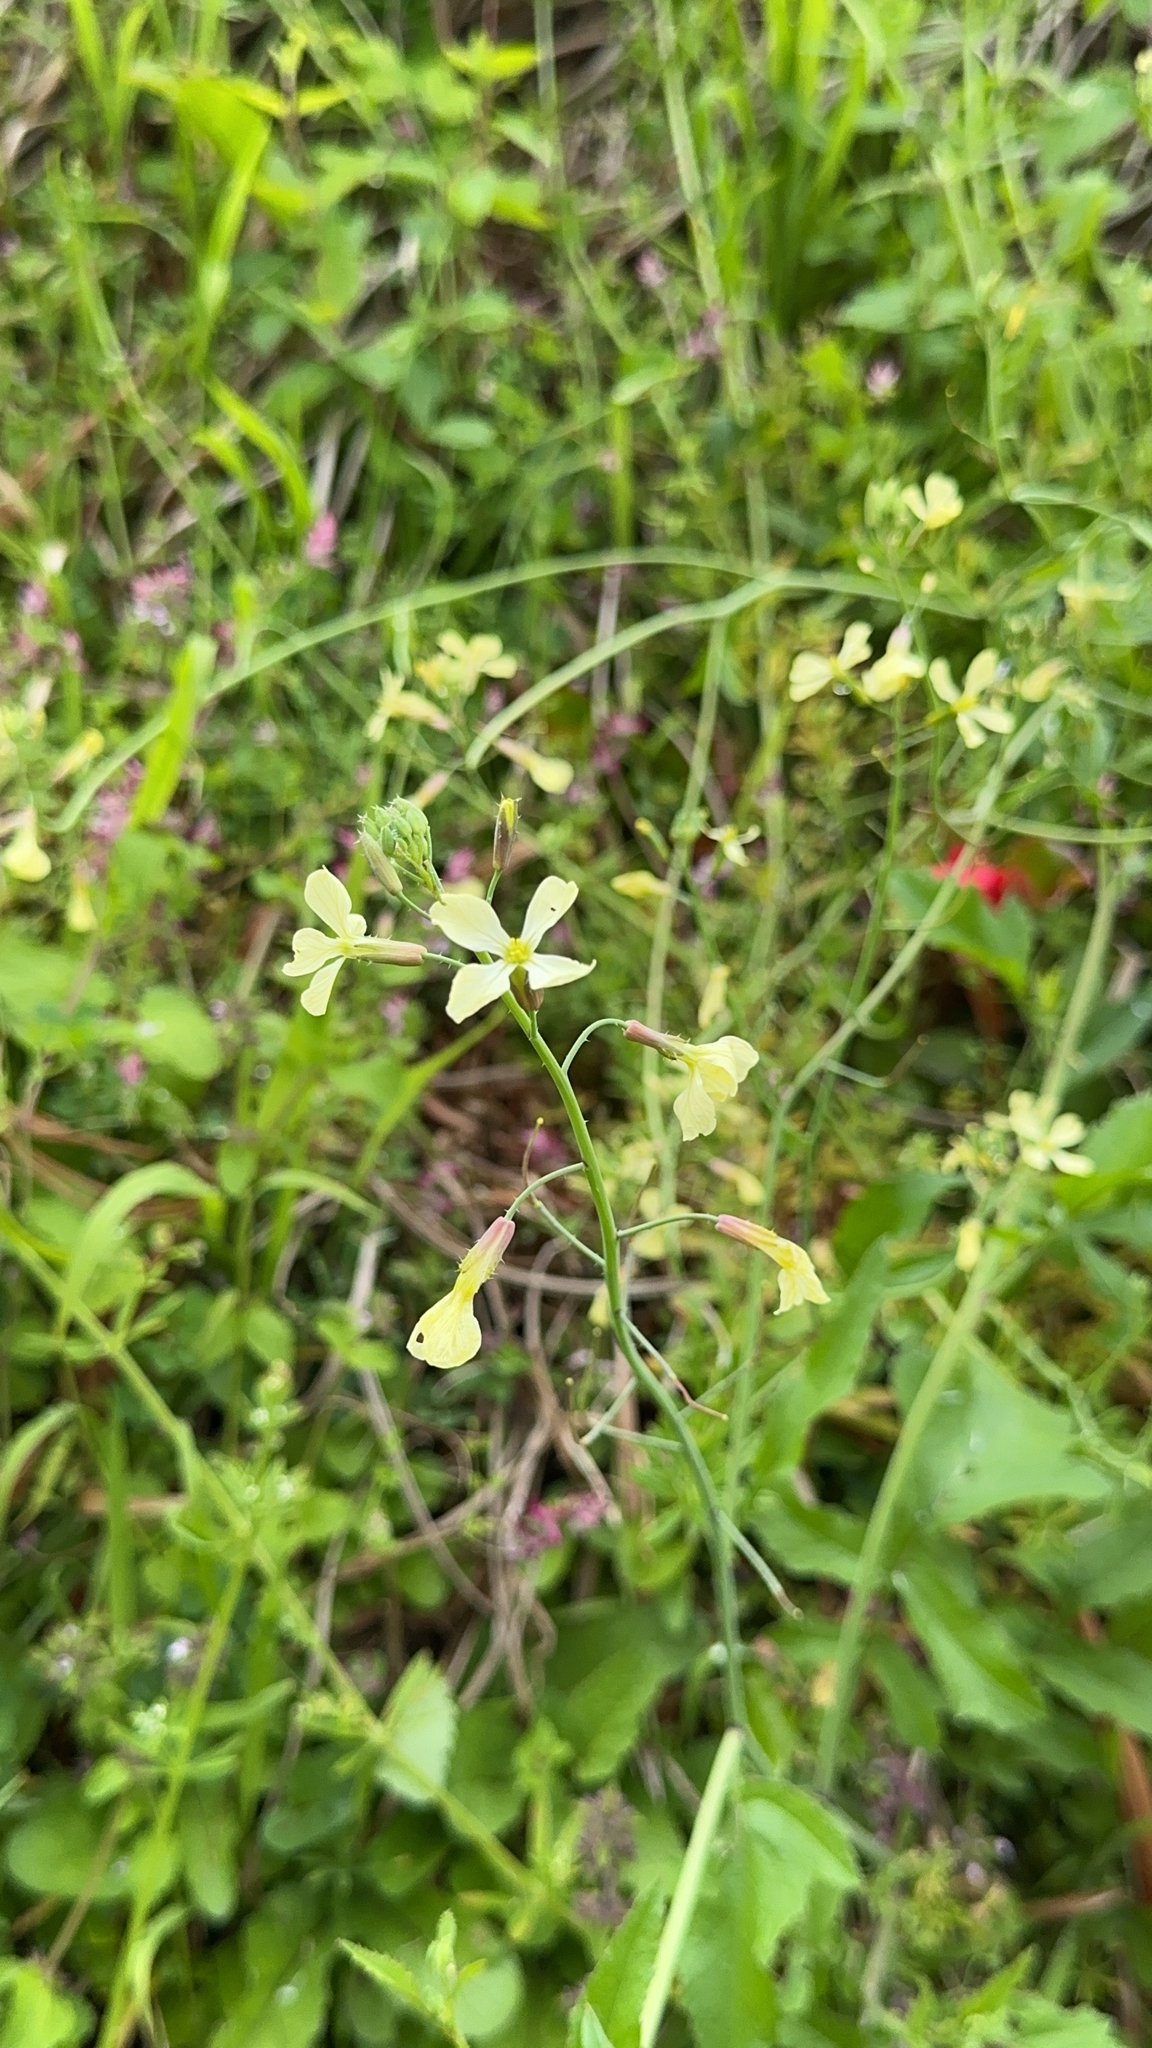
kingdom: Plantae
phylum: Tracheophyta
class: Magnoliopsida
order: Brassicales
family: Brassicaceae
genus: Raphanus
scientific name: Raphanus raphanistrum
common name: Wild radish
